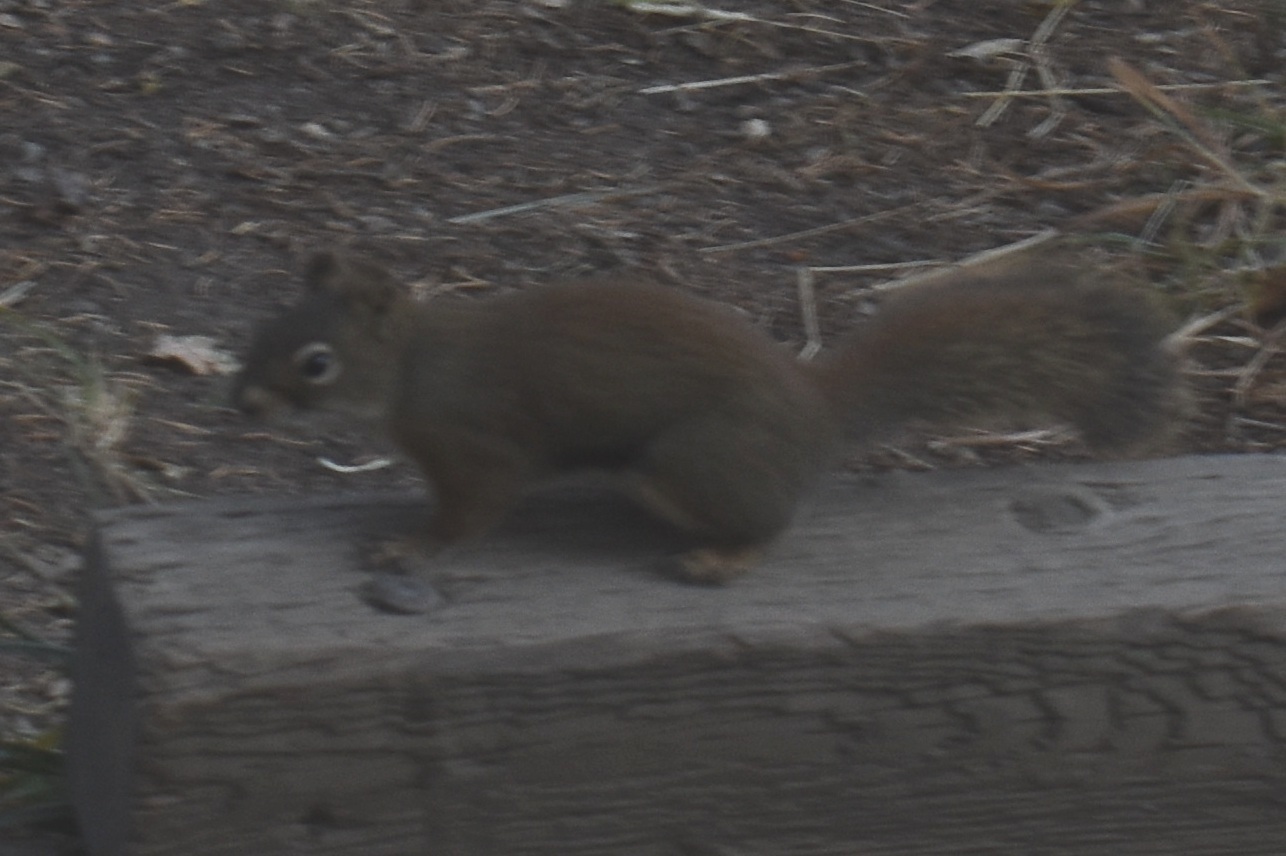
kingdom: Animalia
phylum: Chordata
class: Mammalia
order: Rodentia
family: Sciuridae
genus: Tamiasciurus
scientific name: Tamiasciurus hudsonicus
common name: Red squirrel
